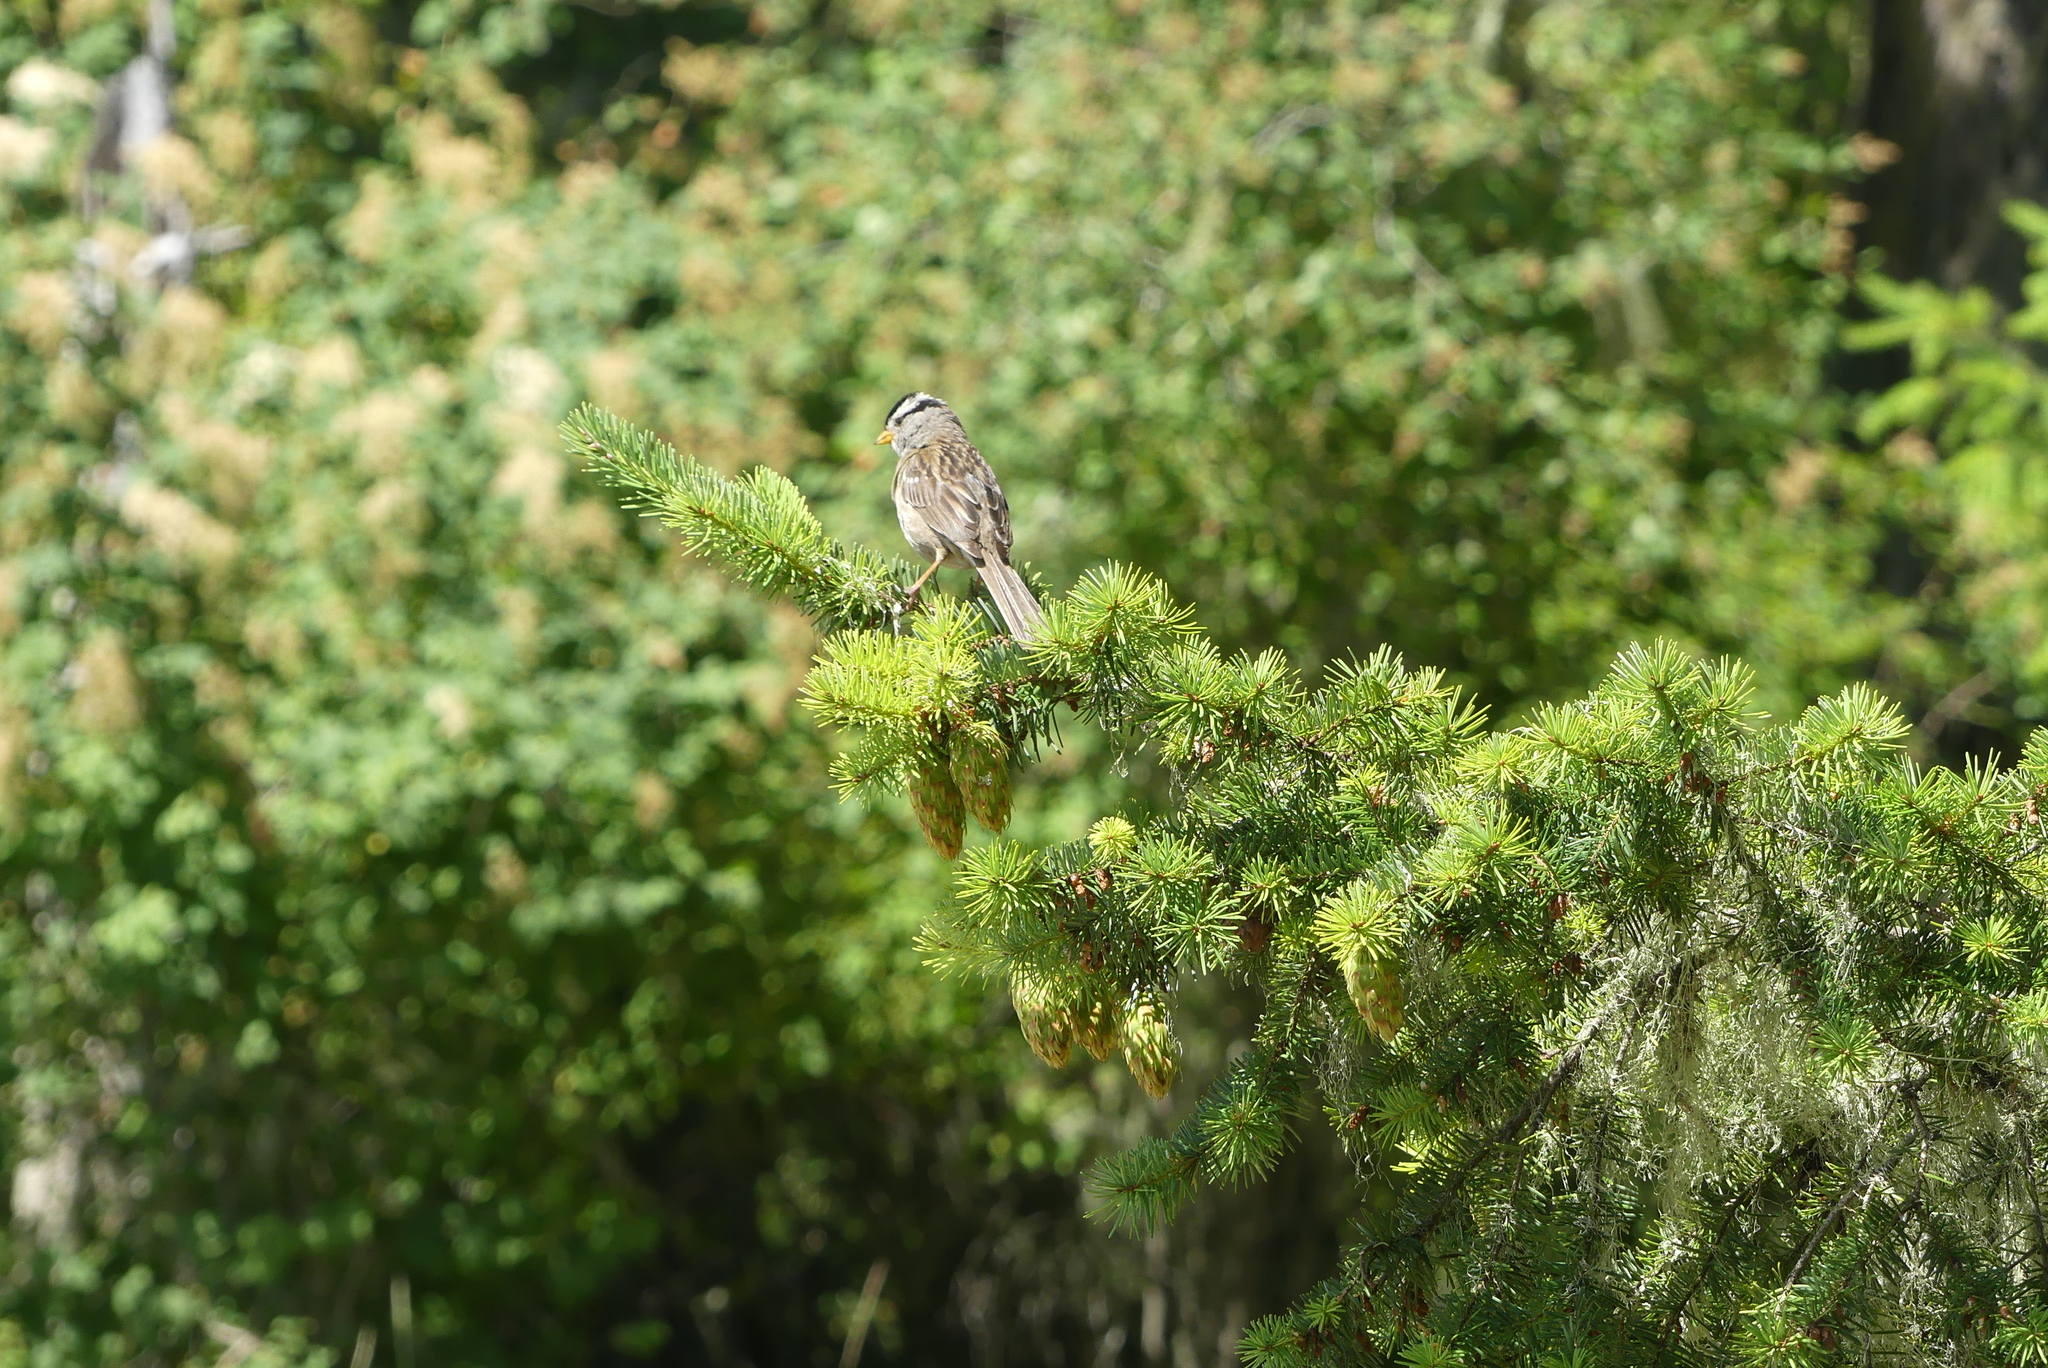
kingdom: Animalia
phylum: Chordata
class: Aves
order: Passeriformes
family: Passerellidae
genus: Zonotrichia
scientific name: Zonotrichia leucophrys
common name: White-crowned sparrow
